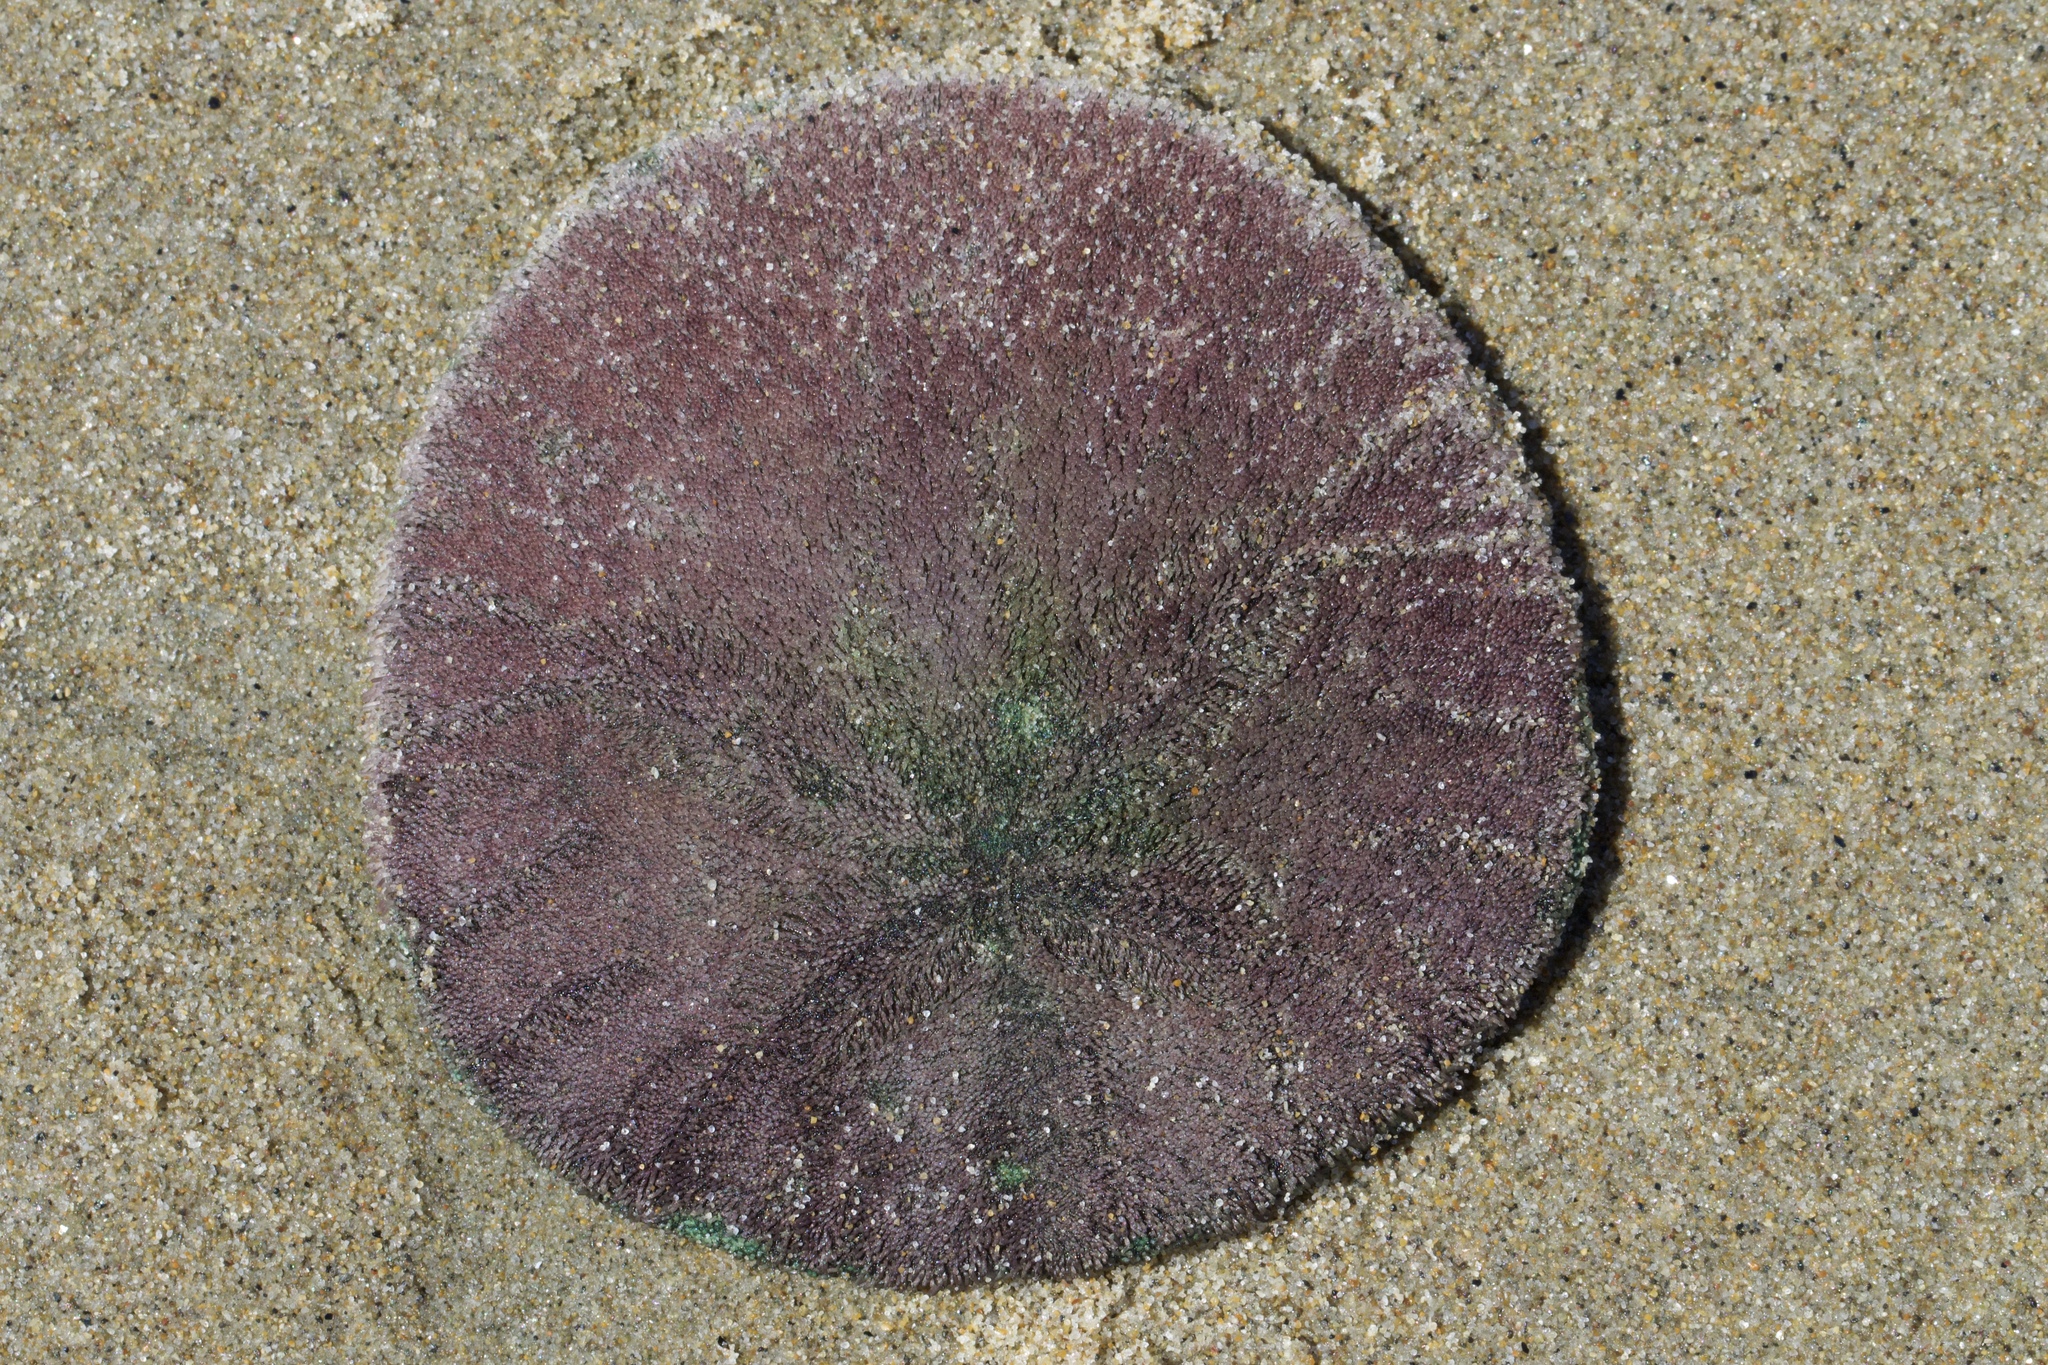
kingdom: Animalia
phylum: Echinodermata
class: Echinoidea
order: Echinolampadacea
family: Dendrasteridae
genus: Dendraster
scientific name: Dendraster excentricus
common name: Eccentric sand dollar sea urchin
